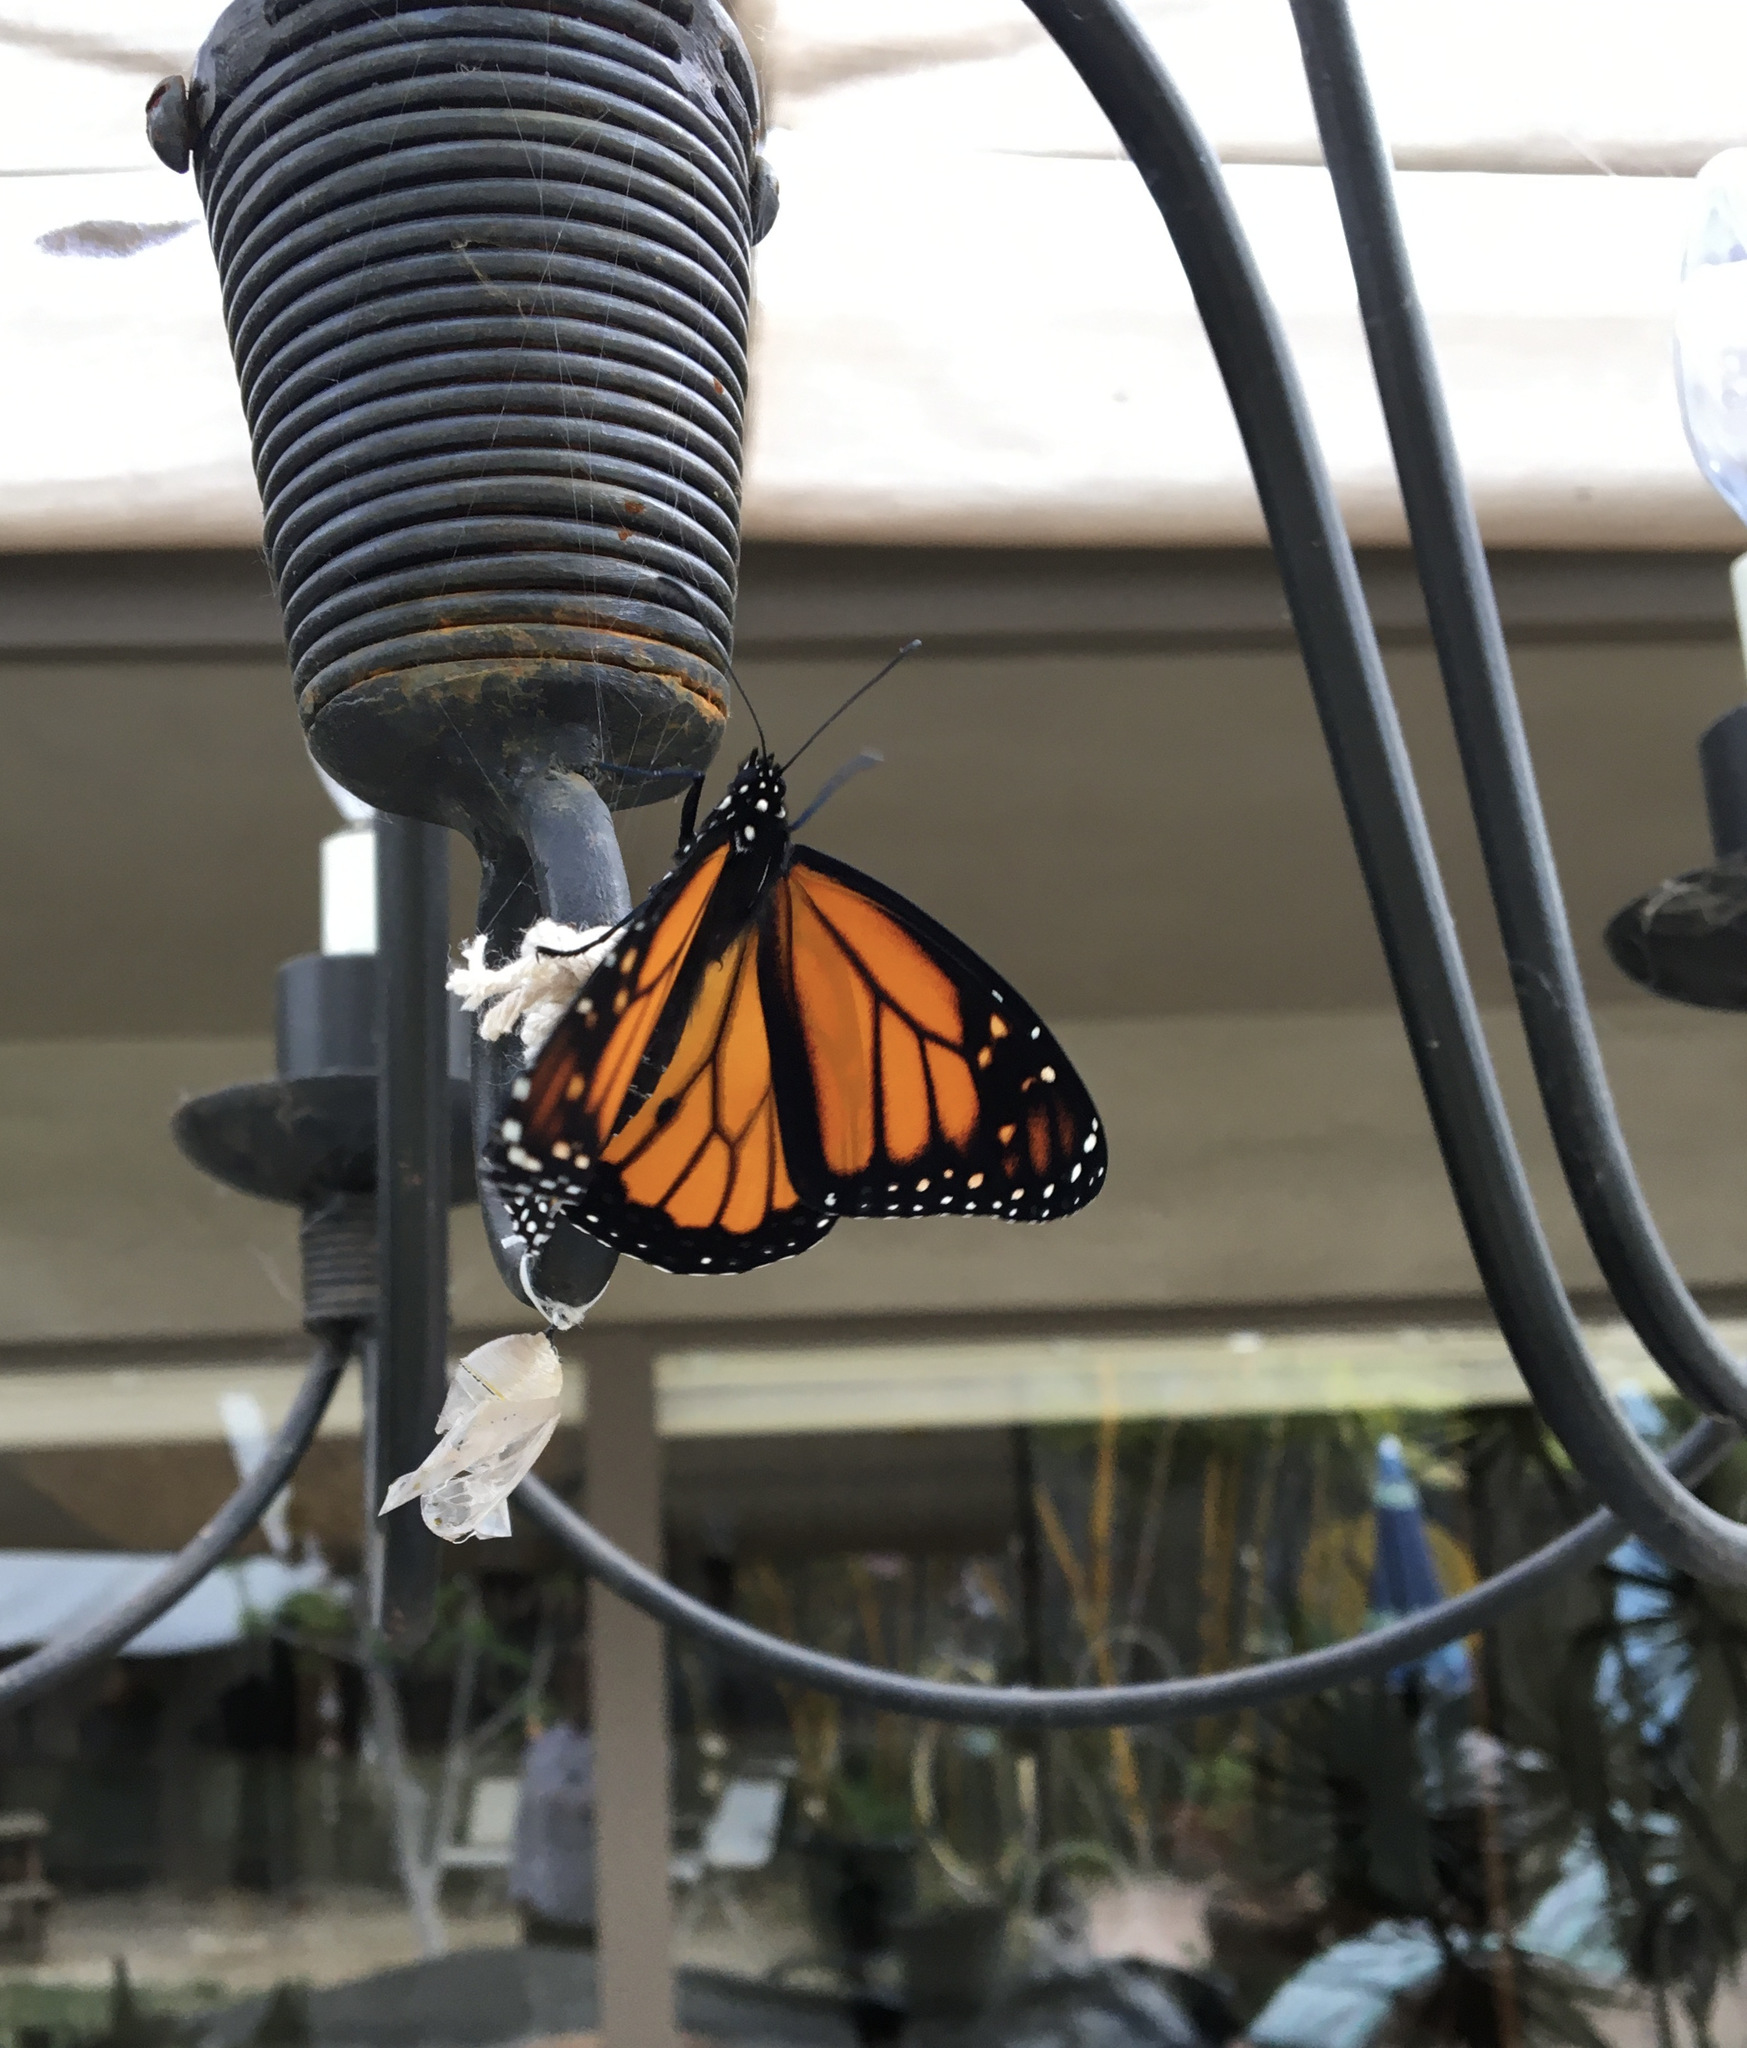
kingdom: Animalia
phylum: Arthropoda
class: Insecta
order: Lepidoptera
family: Nymphalidae
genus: Danaus
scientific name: Danaus plexippus
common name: Monarch
